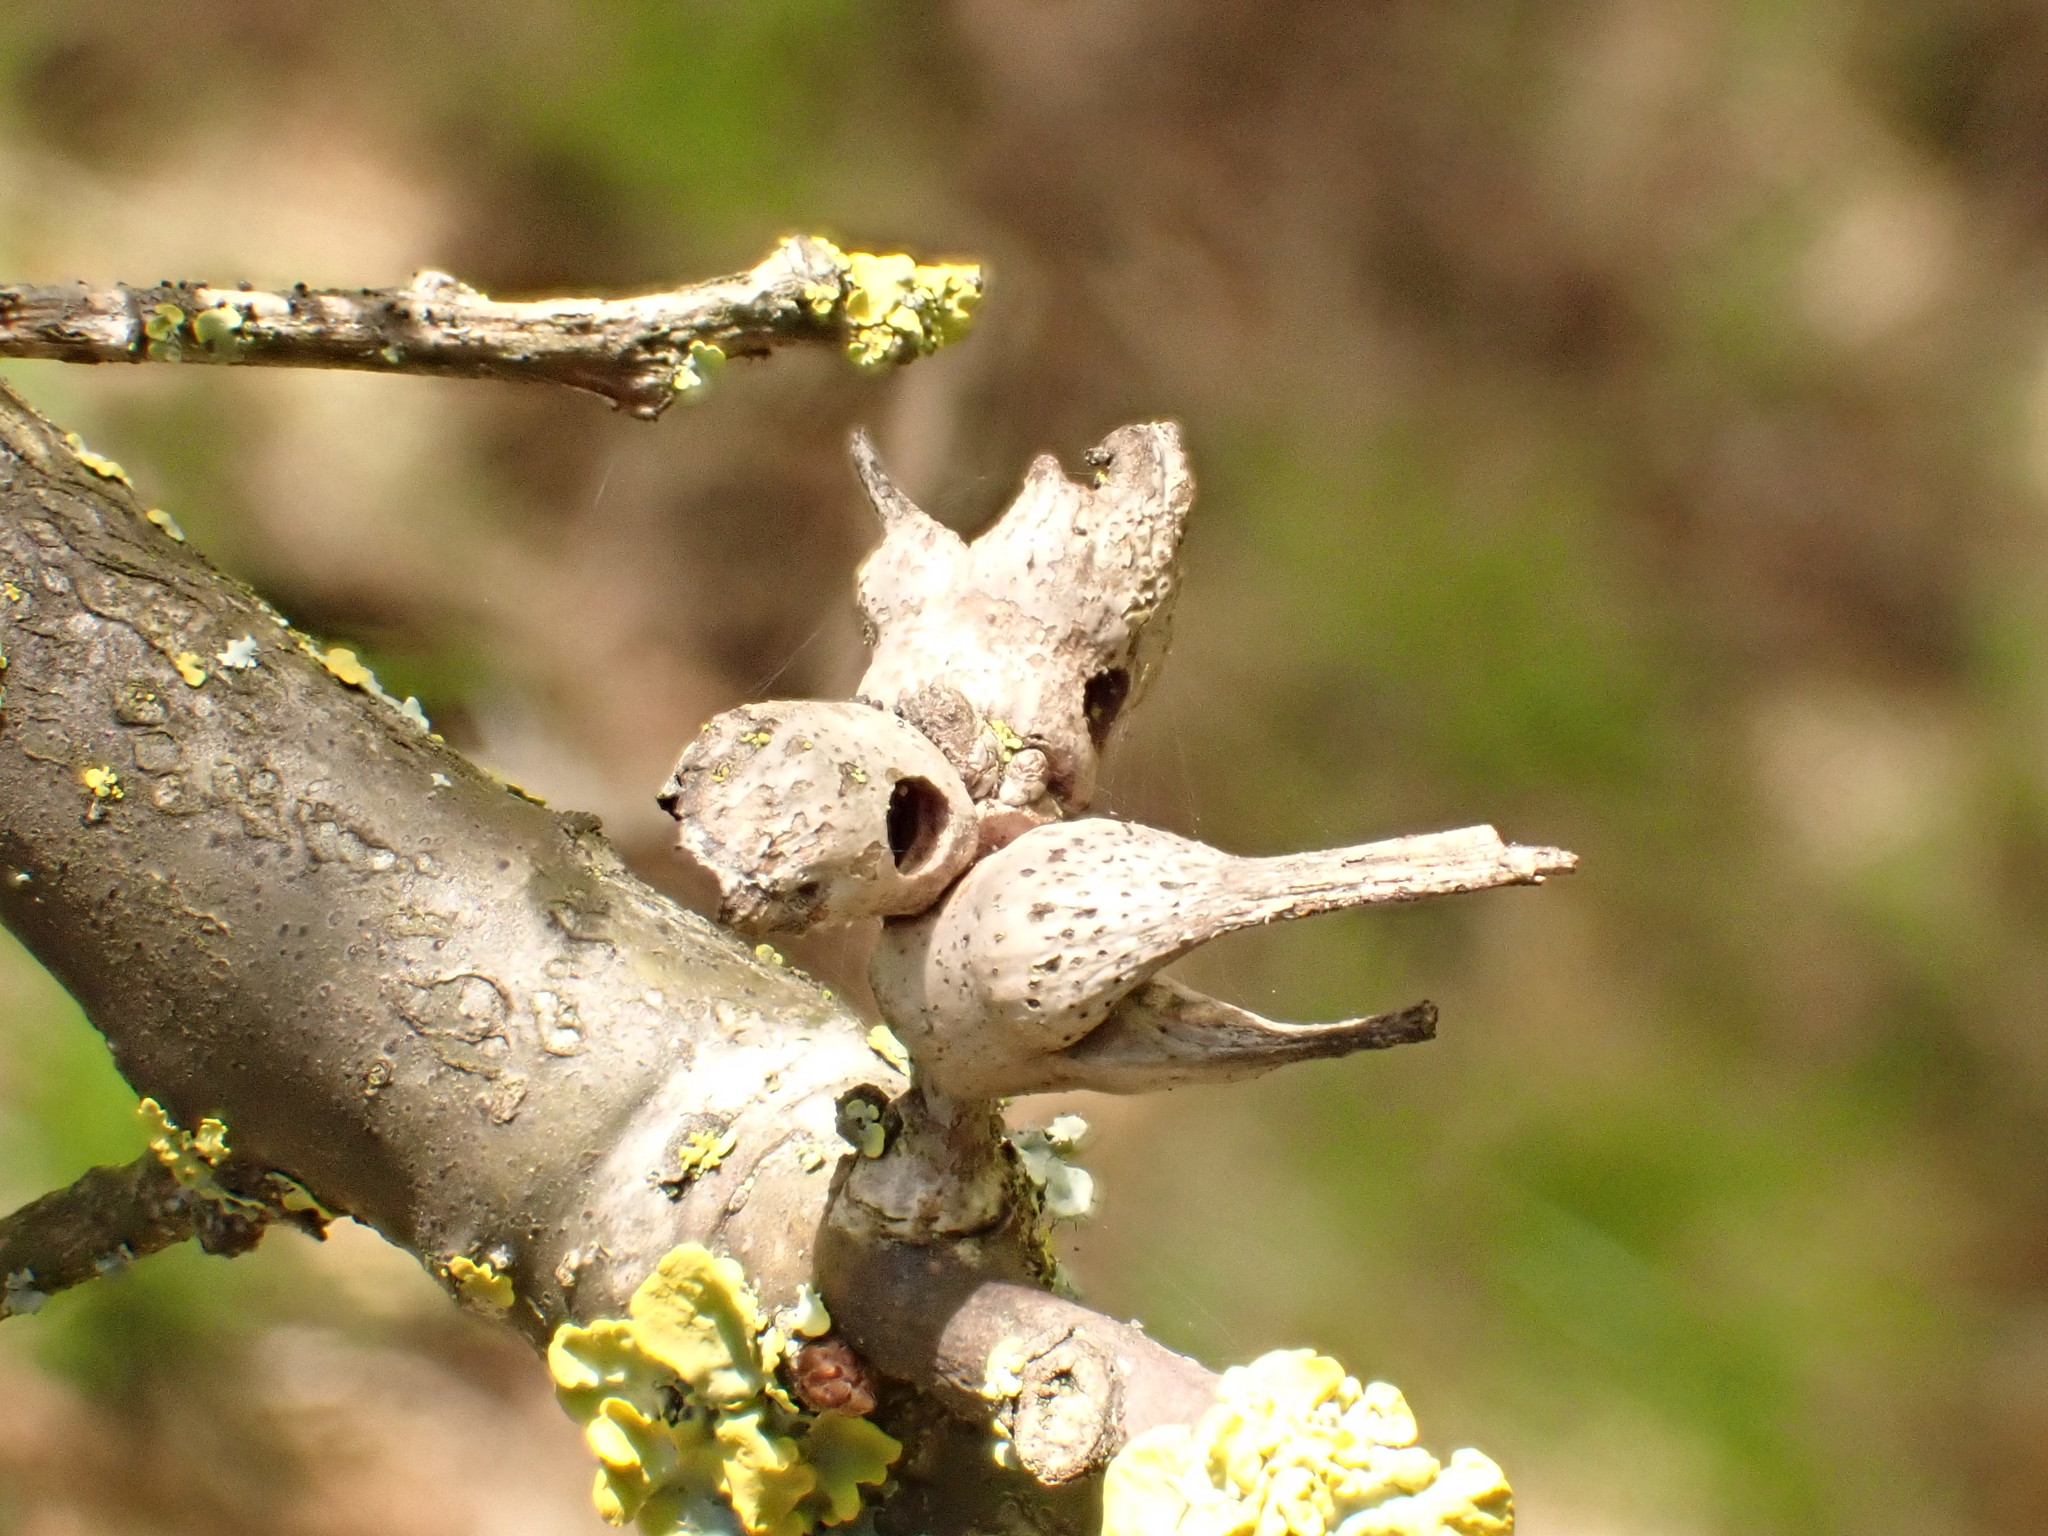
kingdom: Animalia
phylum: Arthropoda
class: Insecta
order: Hymenoptera
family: Cynipidae
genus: Andricus
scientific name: Andricus aries
